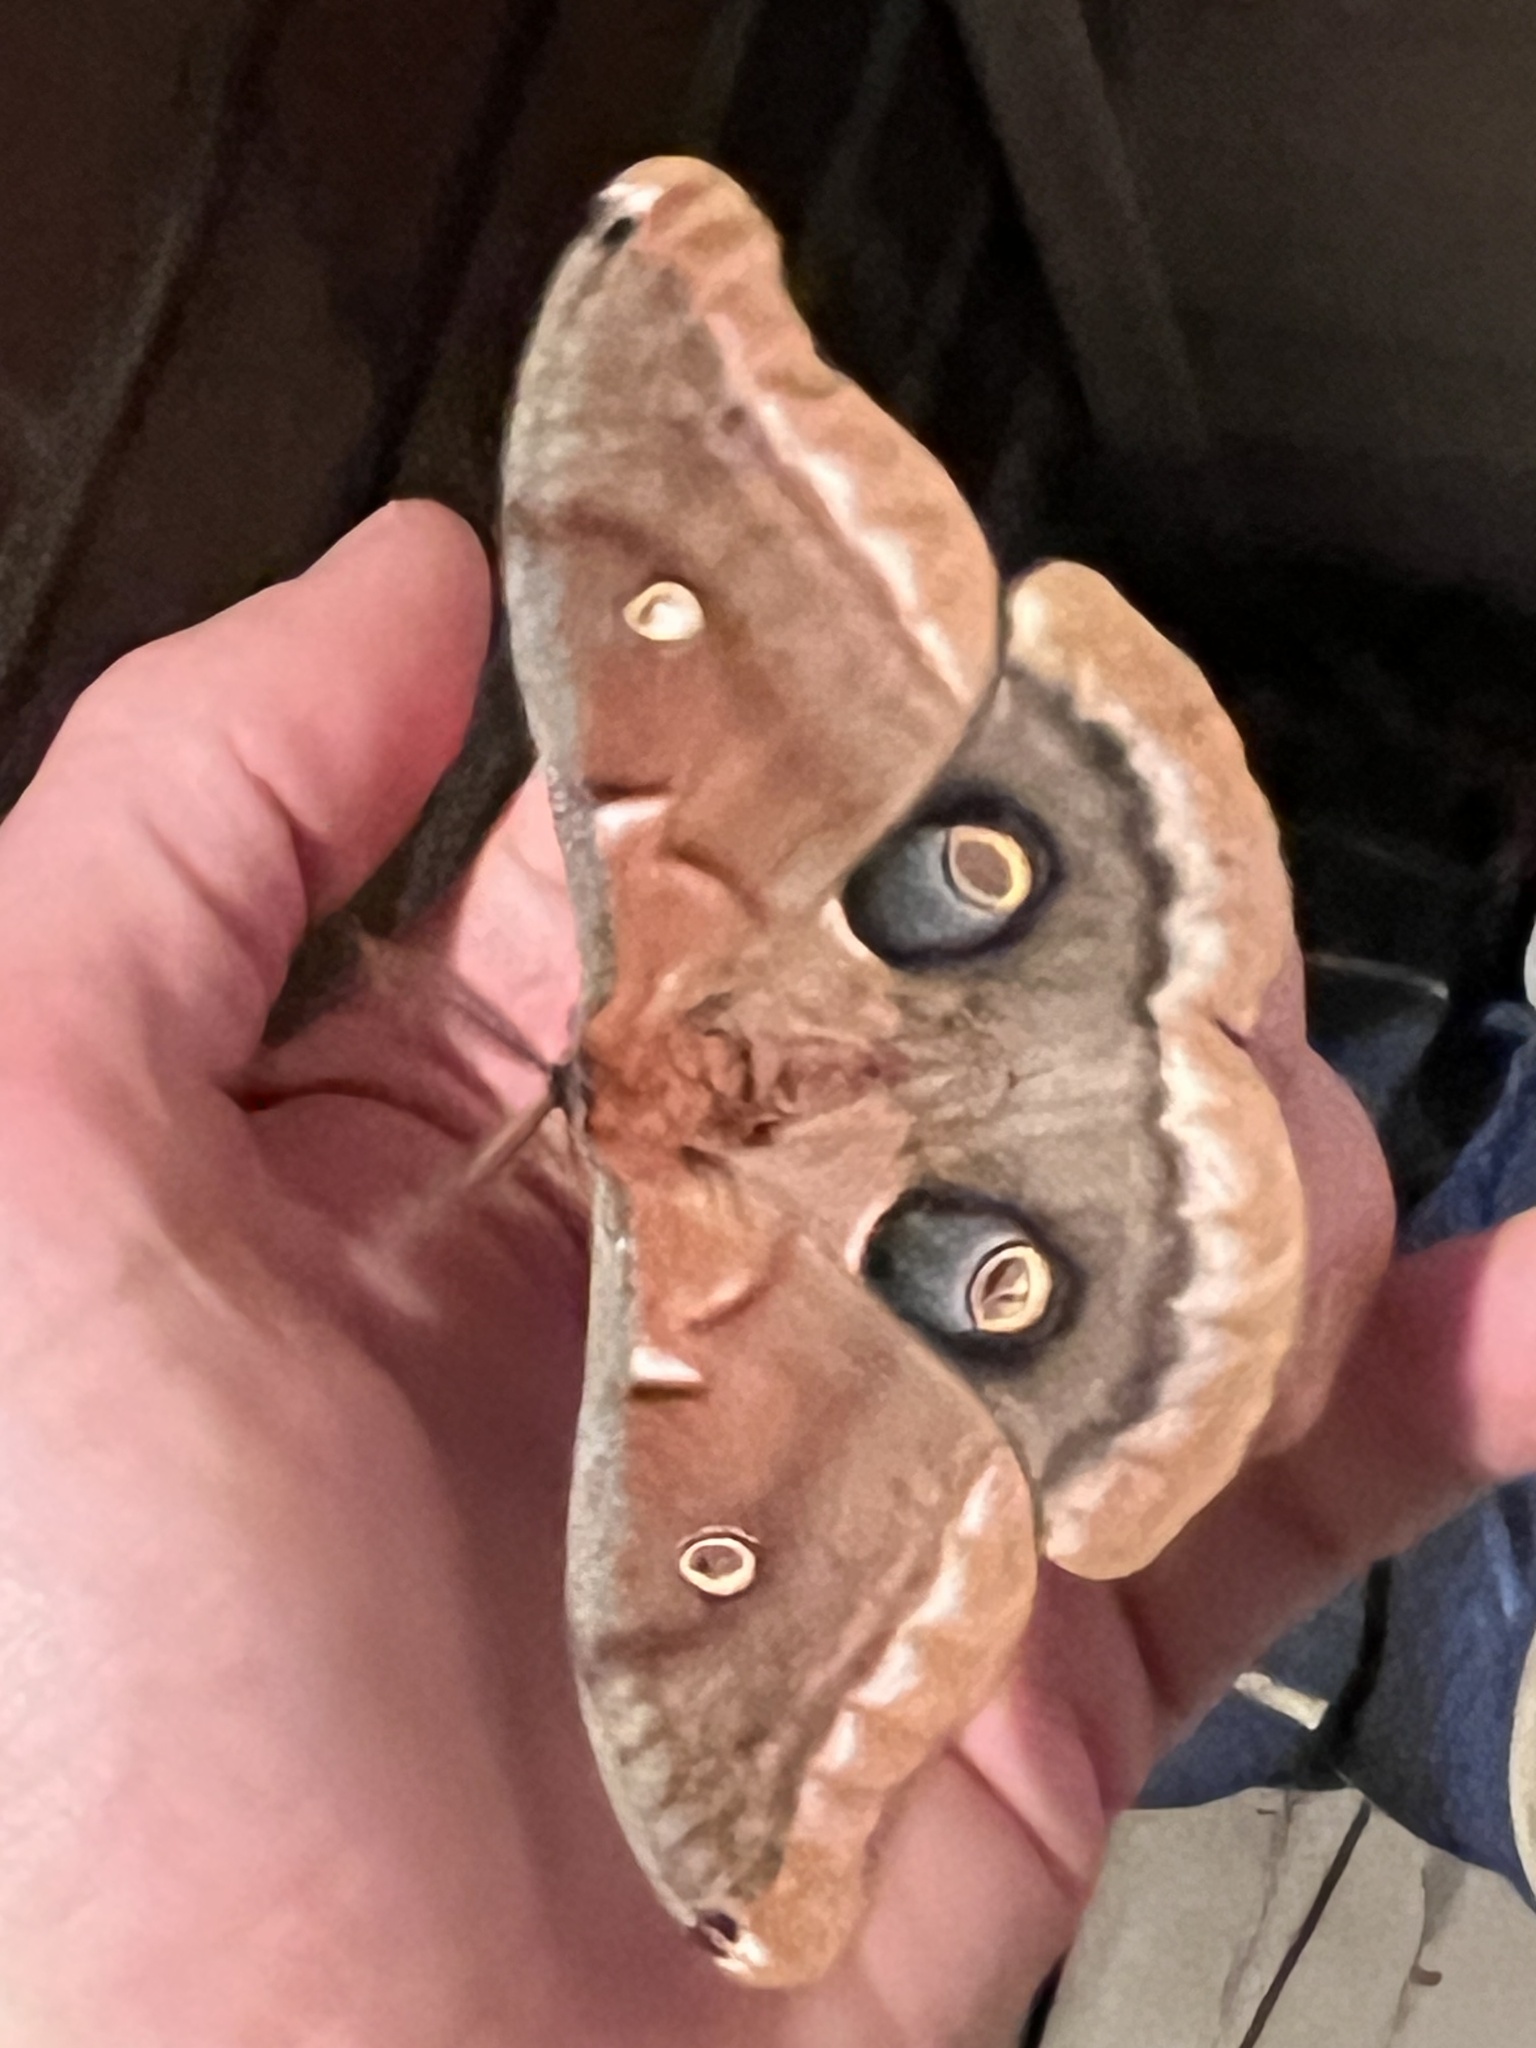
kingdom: Animalia
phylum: Arthropoda
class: Insecta
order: Lepidoptera
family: Saturniidae
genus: Antheraea
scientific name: Antheraea polyphemus
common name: Polyphemus moth
